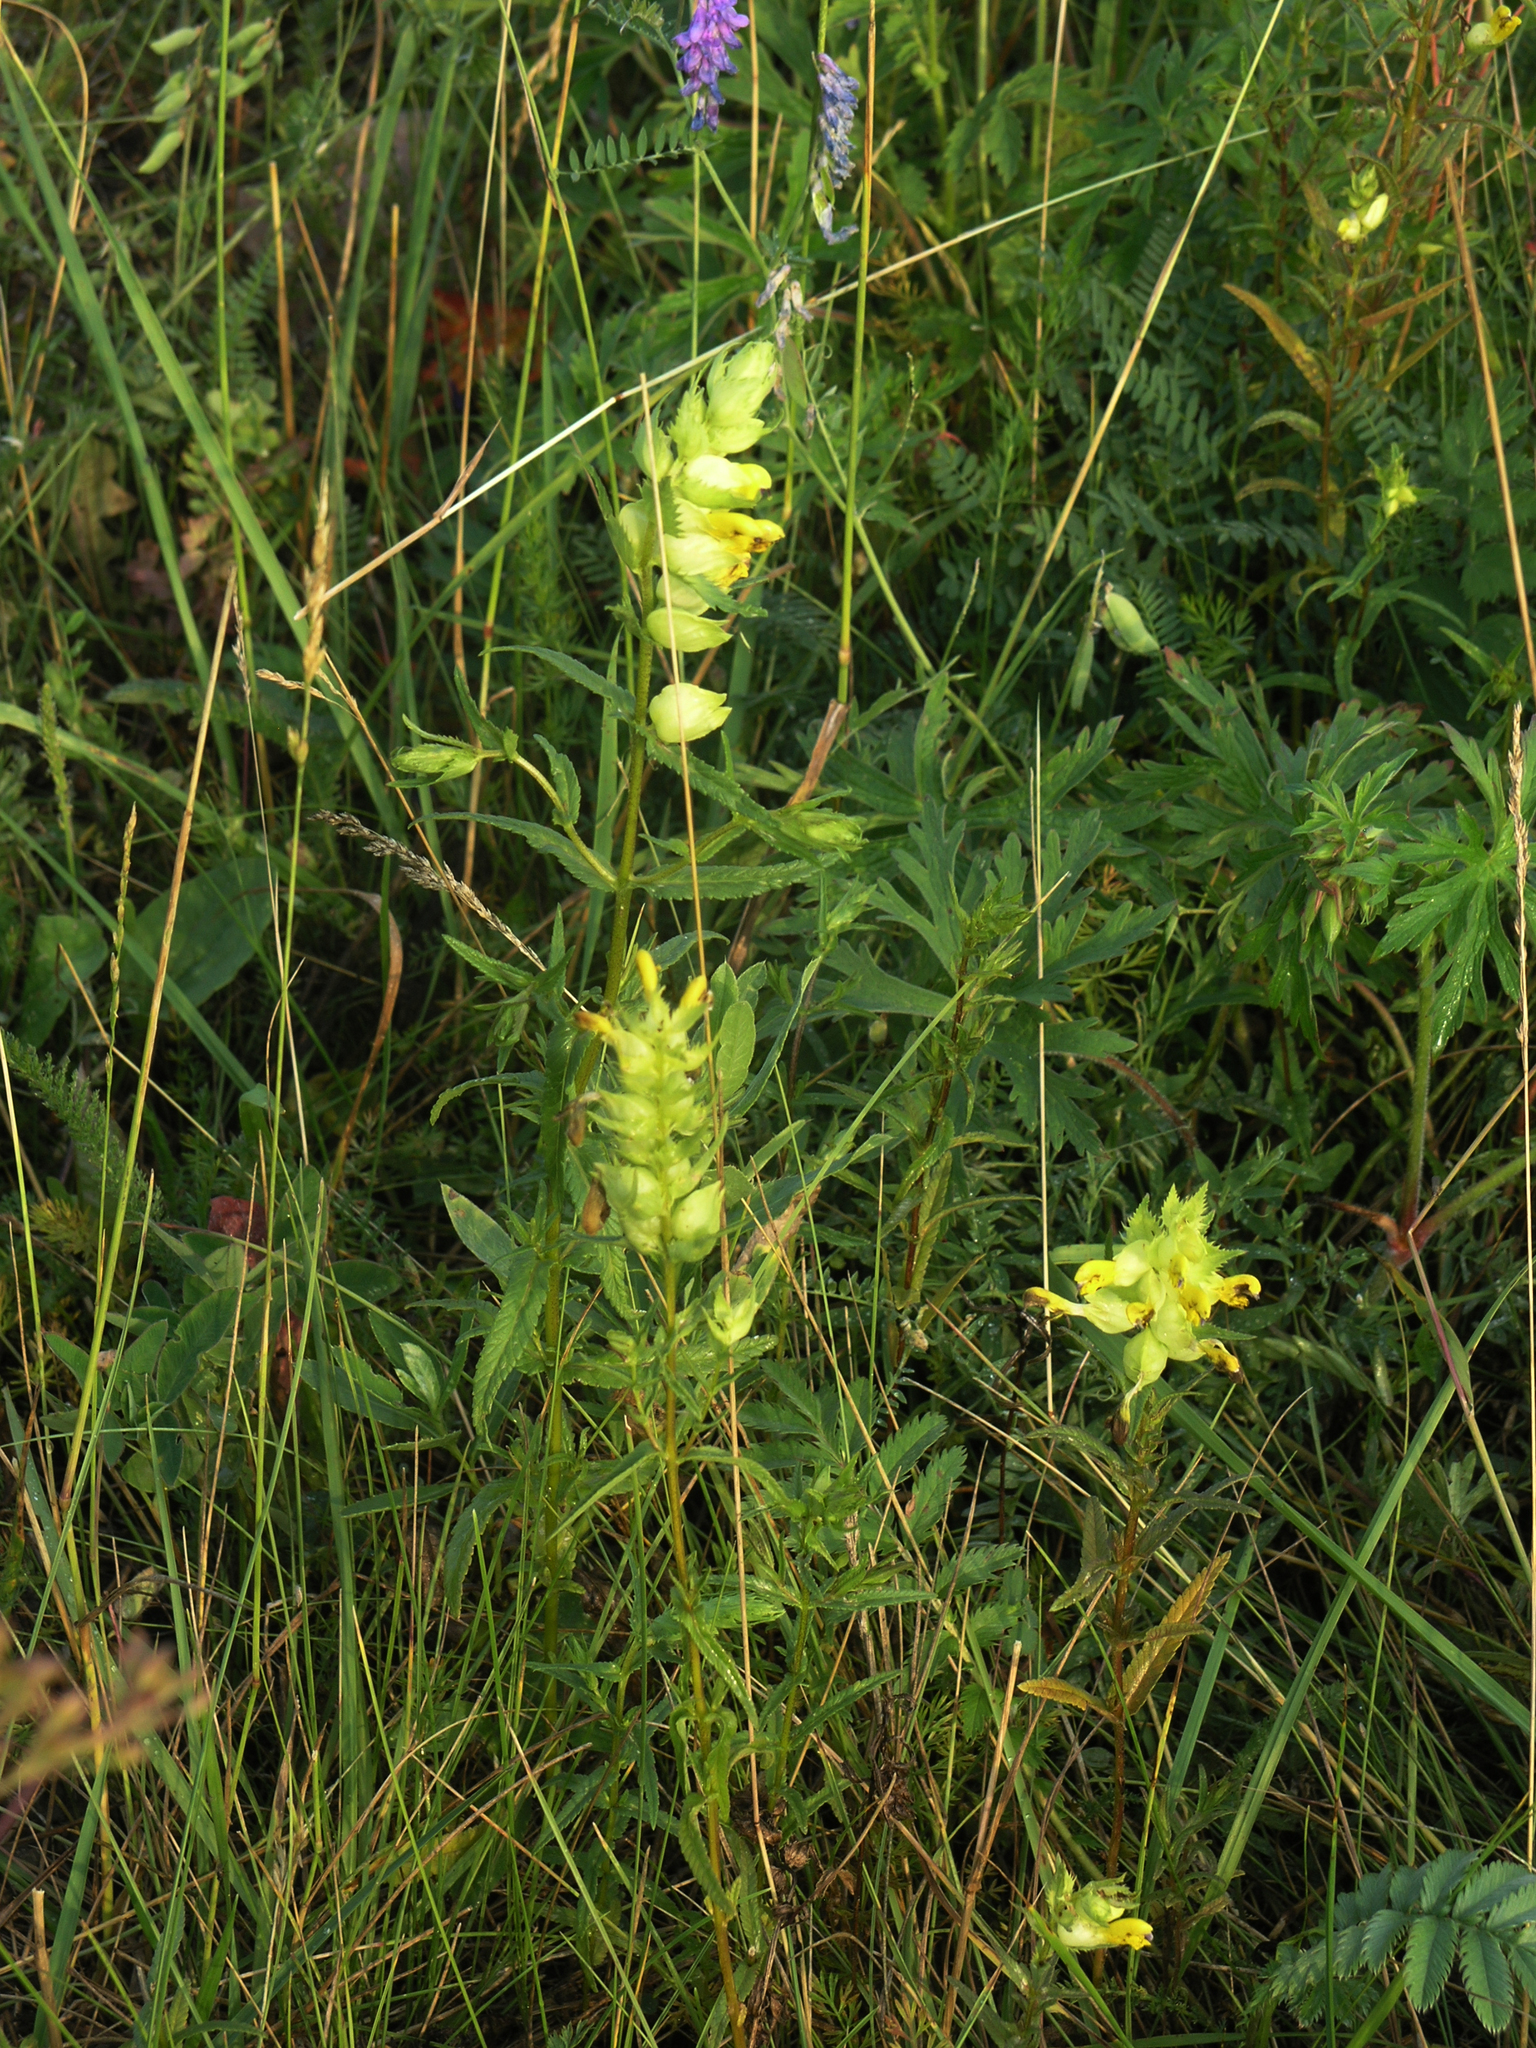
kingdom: Plantae
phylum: Tracheophyta
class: Magnoliopsida
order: Lamiales
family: Orobanchaceae
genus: Rhinanthus
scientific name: Rhinanthus serotinus
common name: Late-flowering yellow rattle
